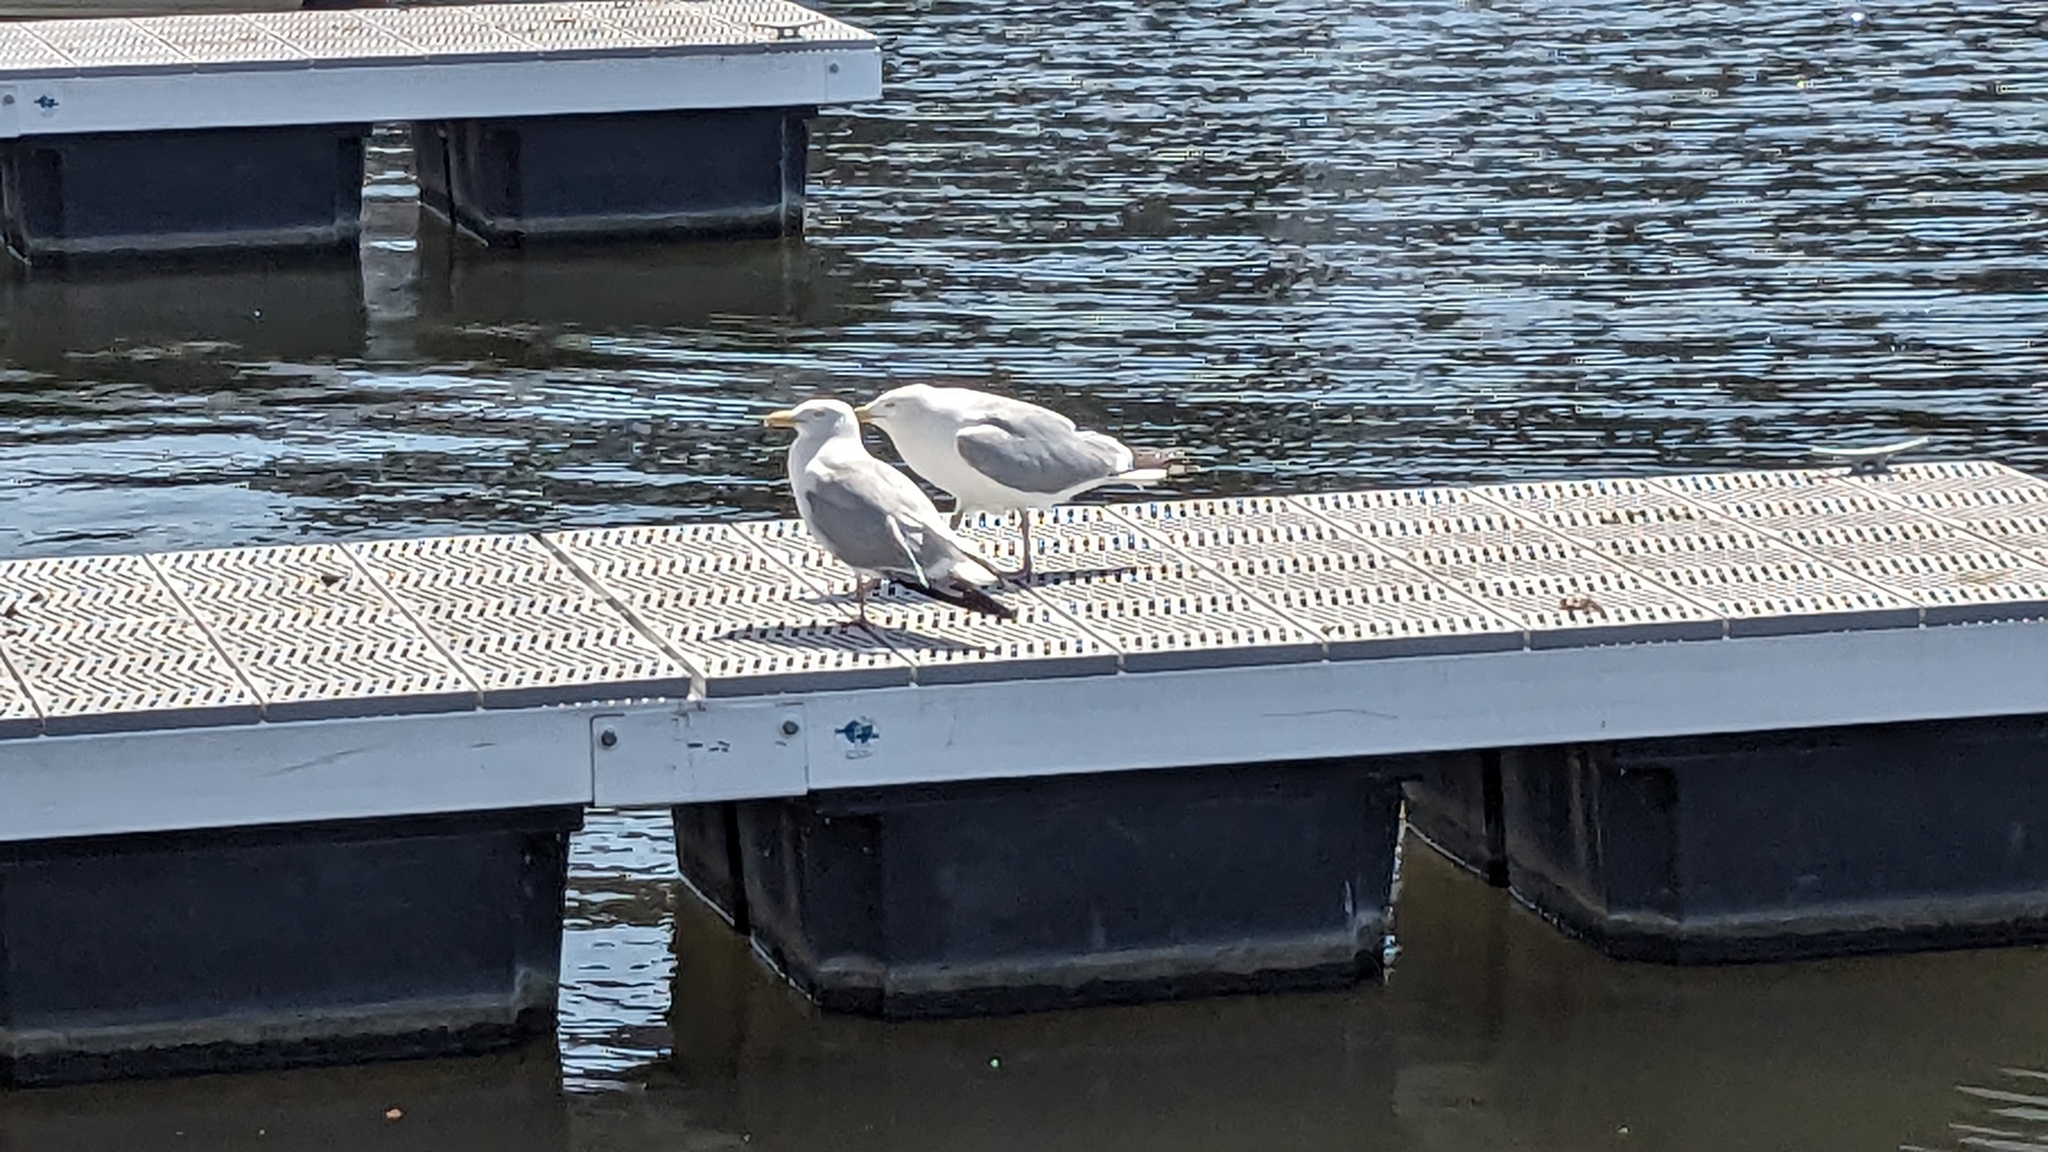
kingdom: Animalia
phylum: Chordata
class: Aves
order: Charadriiformes
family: Laridae
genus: Larus
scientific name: Larus argentatus
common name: Herring gull
